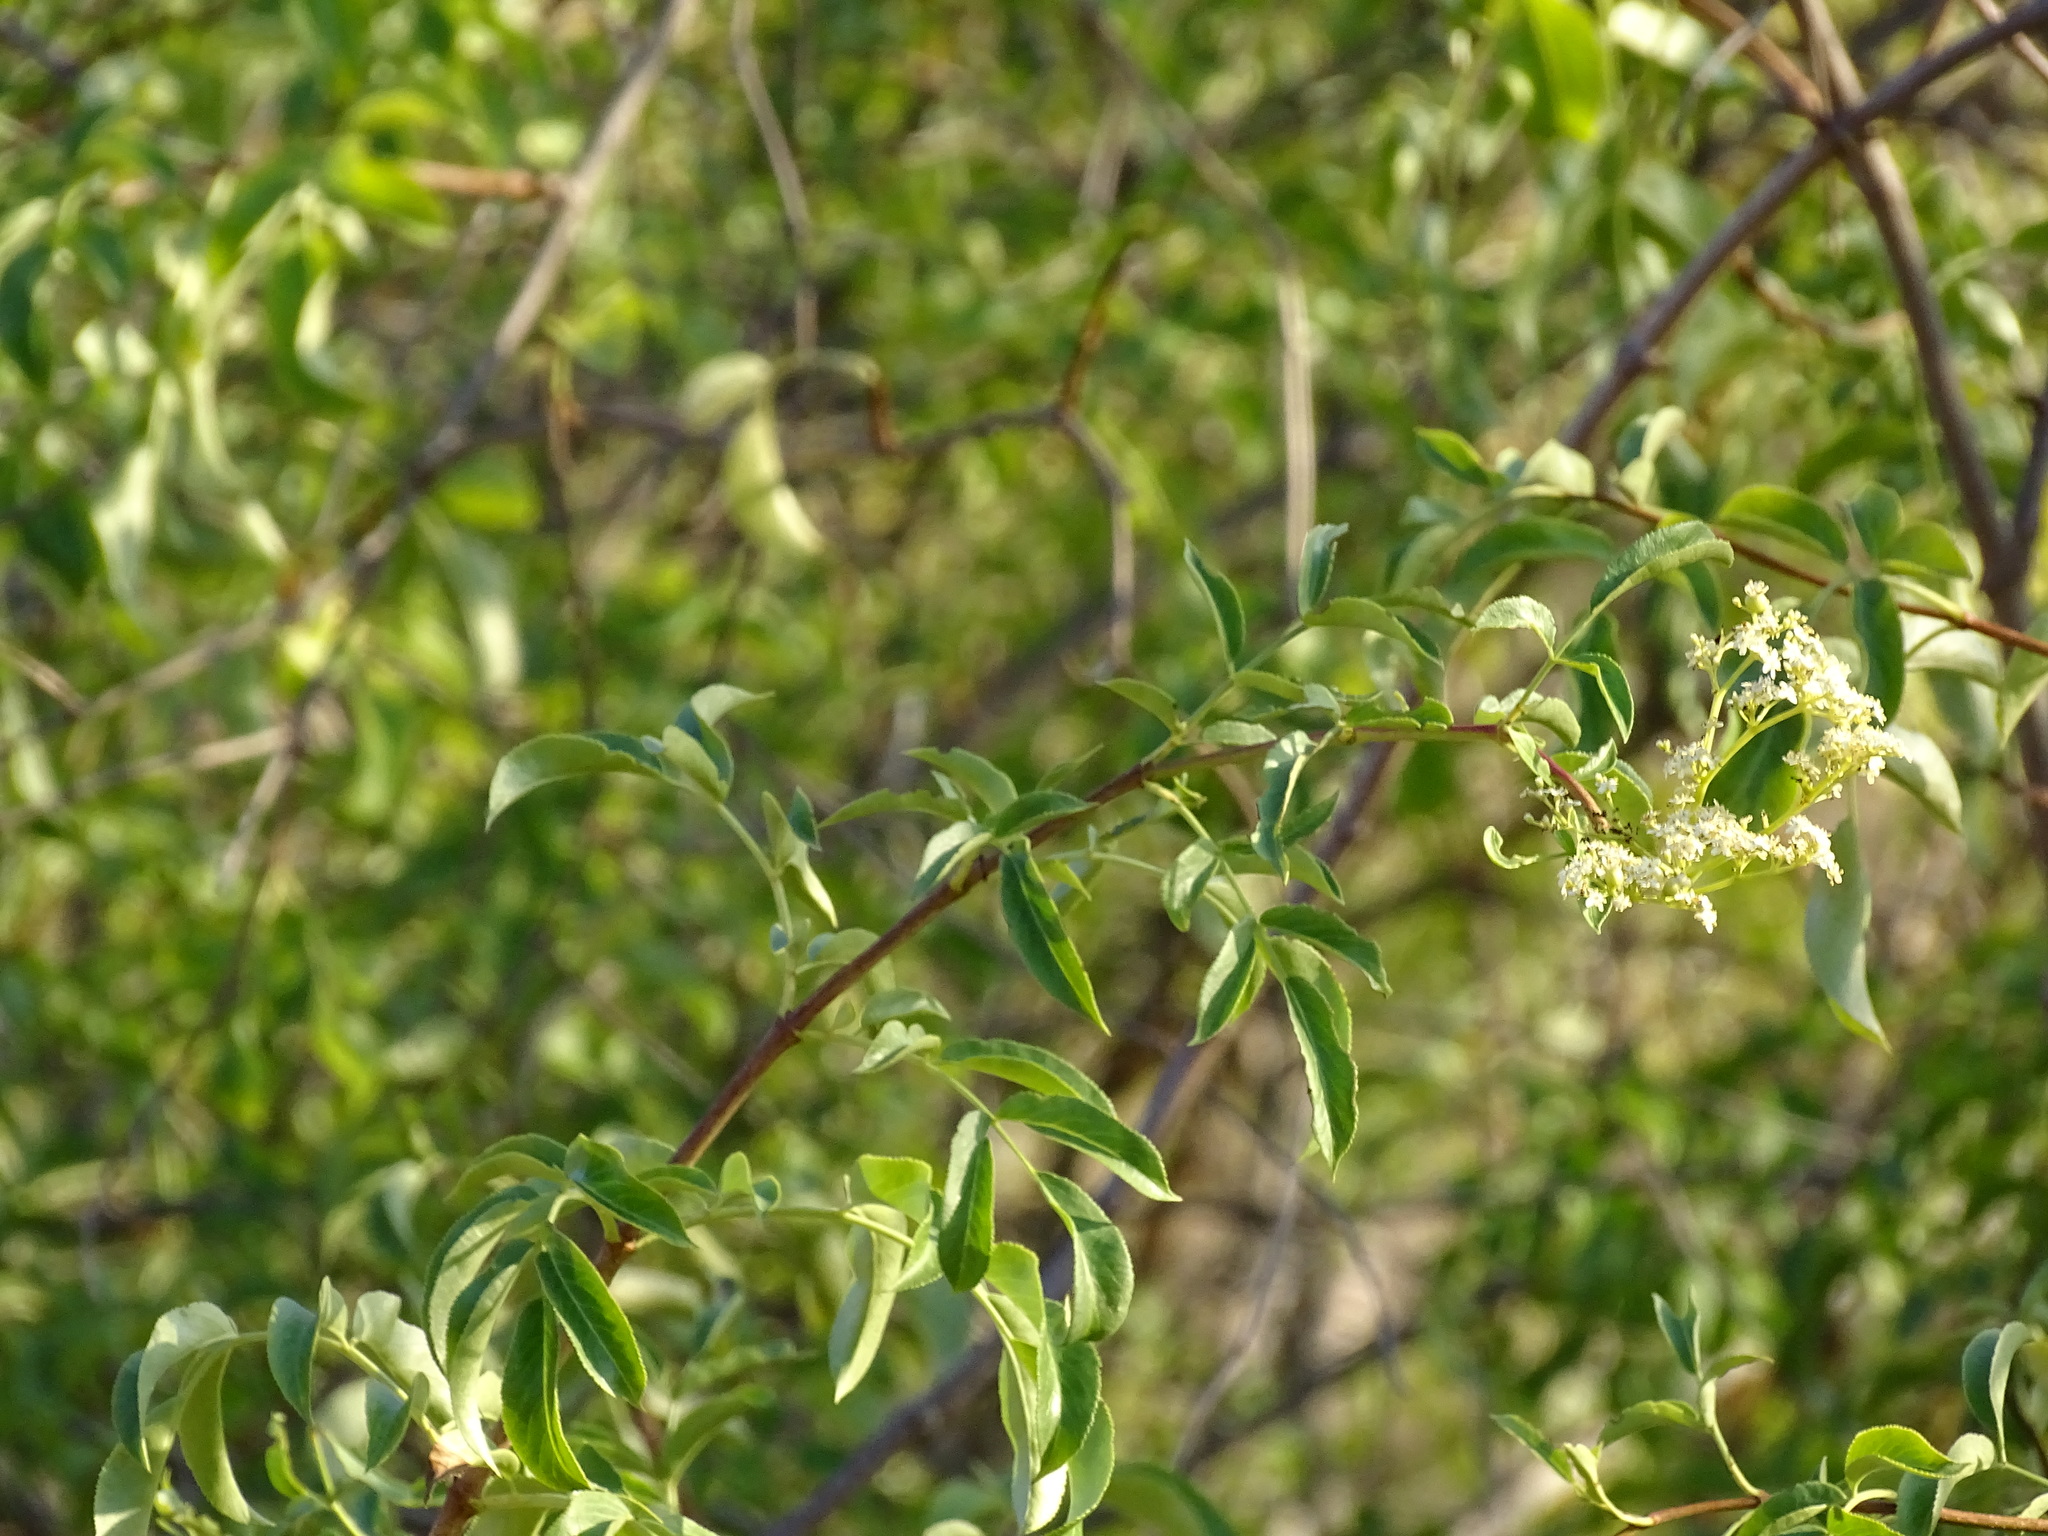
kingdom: Plantae
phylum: Tracheophyta
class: Magnoliopsida
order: Dipsacales
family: Viburnaceae
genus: Sambucus
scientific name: Sambucus cerulea
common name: Blue elder
